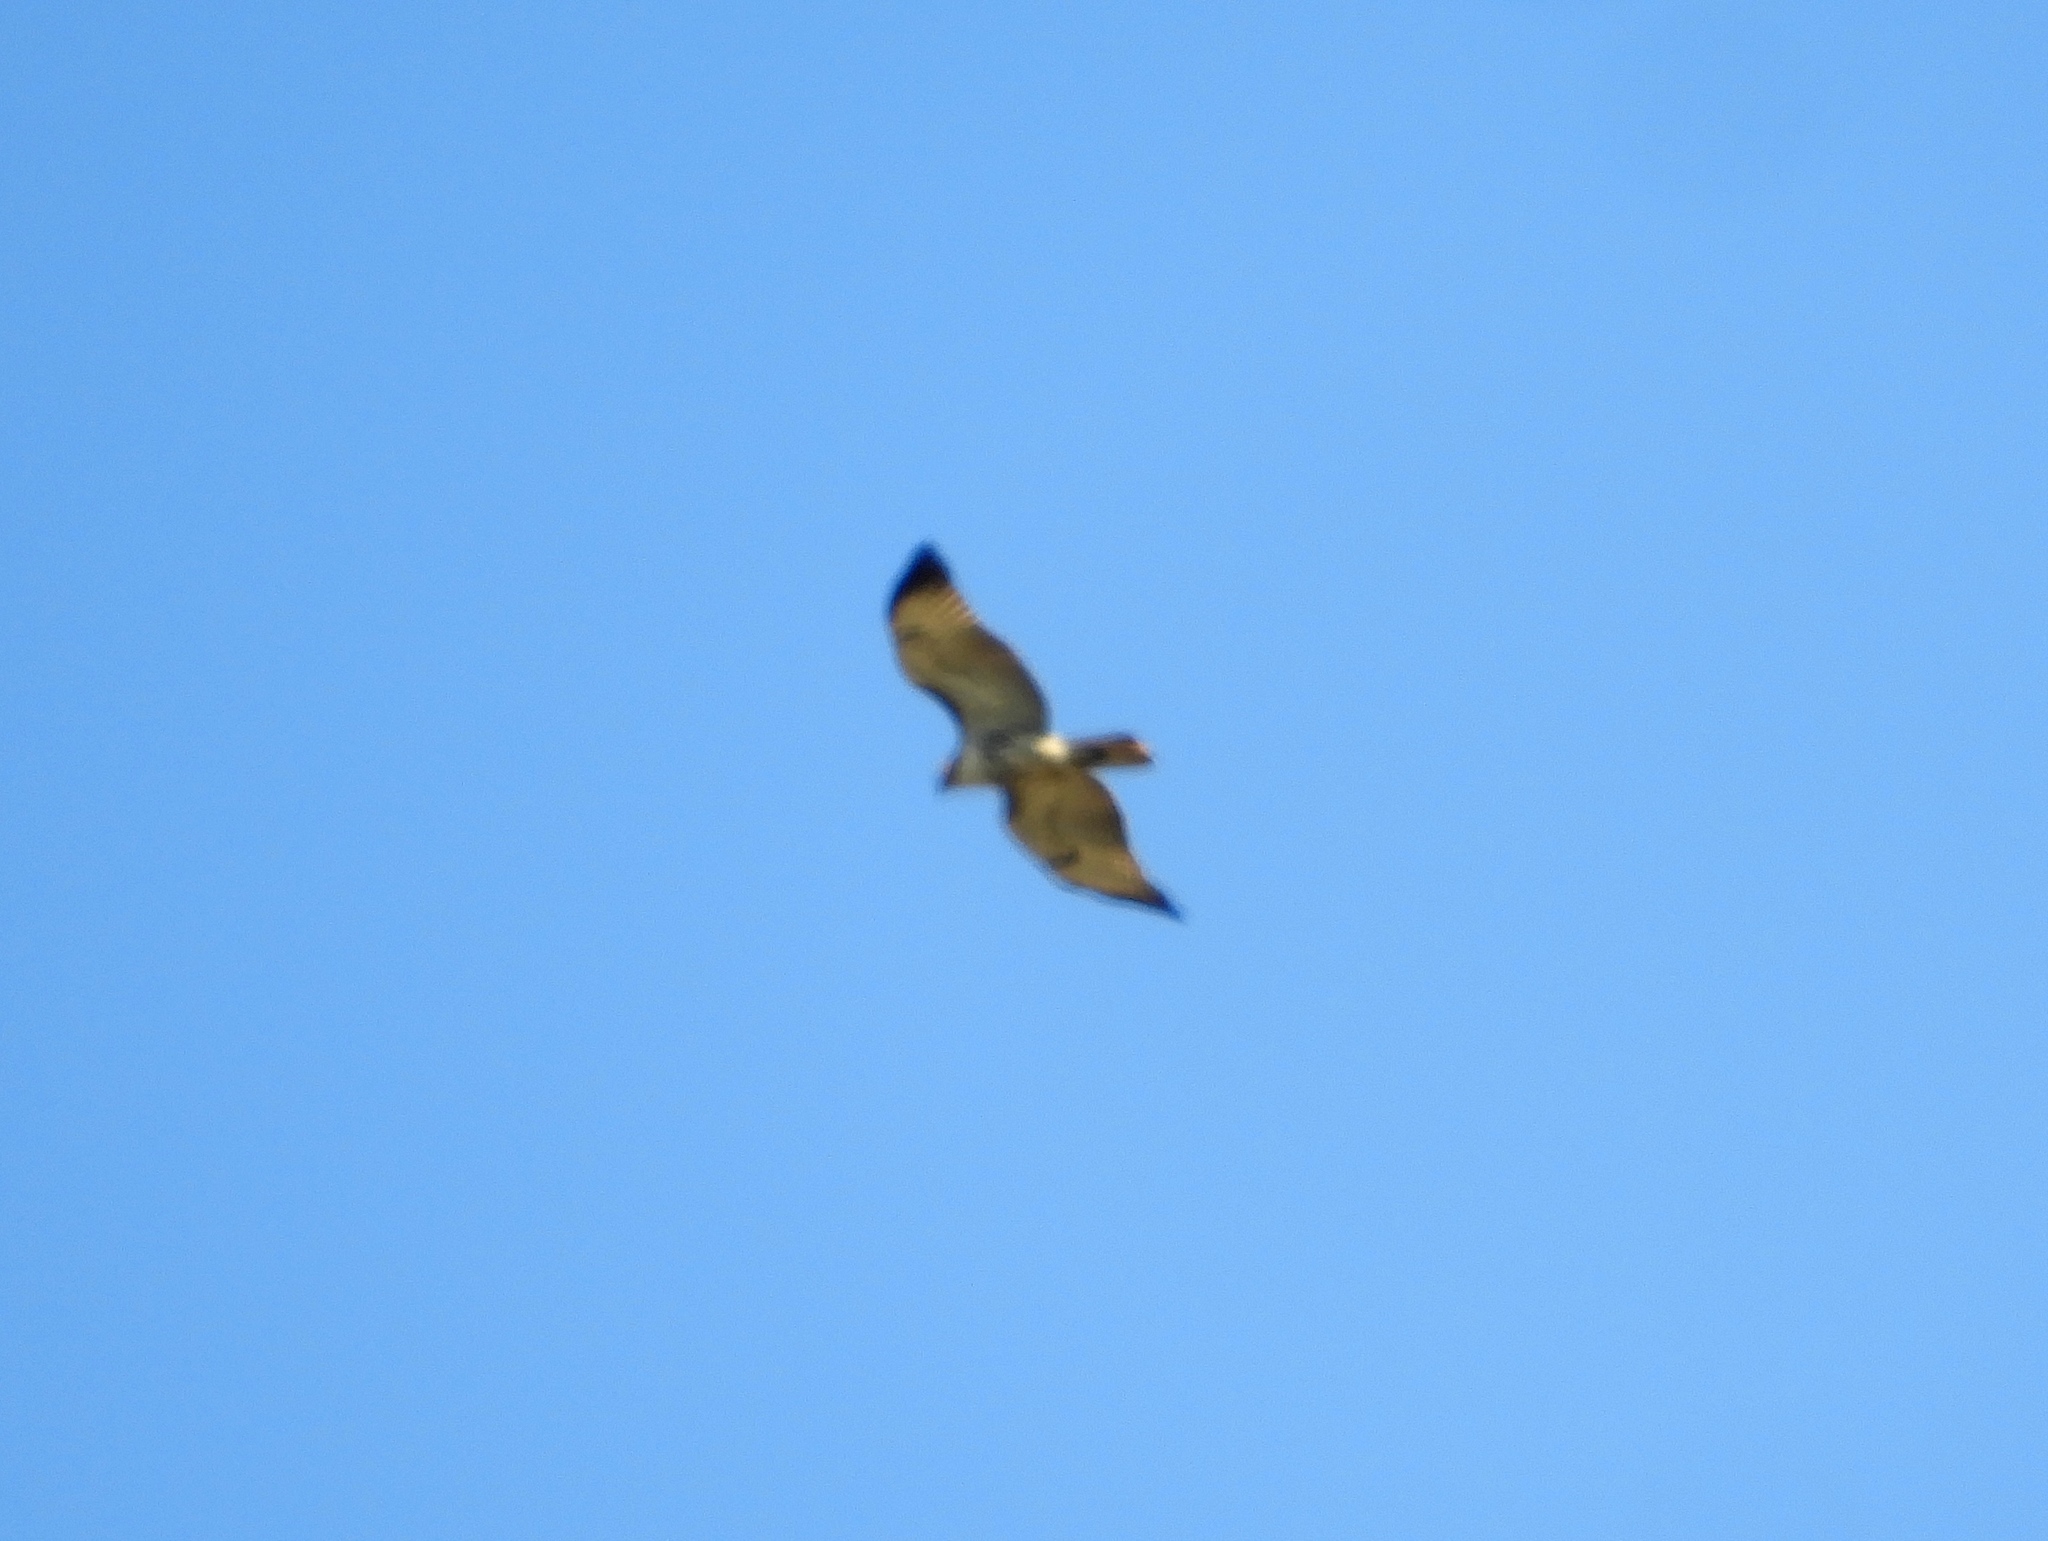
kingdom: Animalia
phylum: Chordata
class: Aves
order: Accipitriformes
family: Accipitridae
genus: Buteo
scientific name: Buteo jamaicensis
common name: Red-tailed hawk
